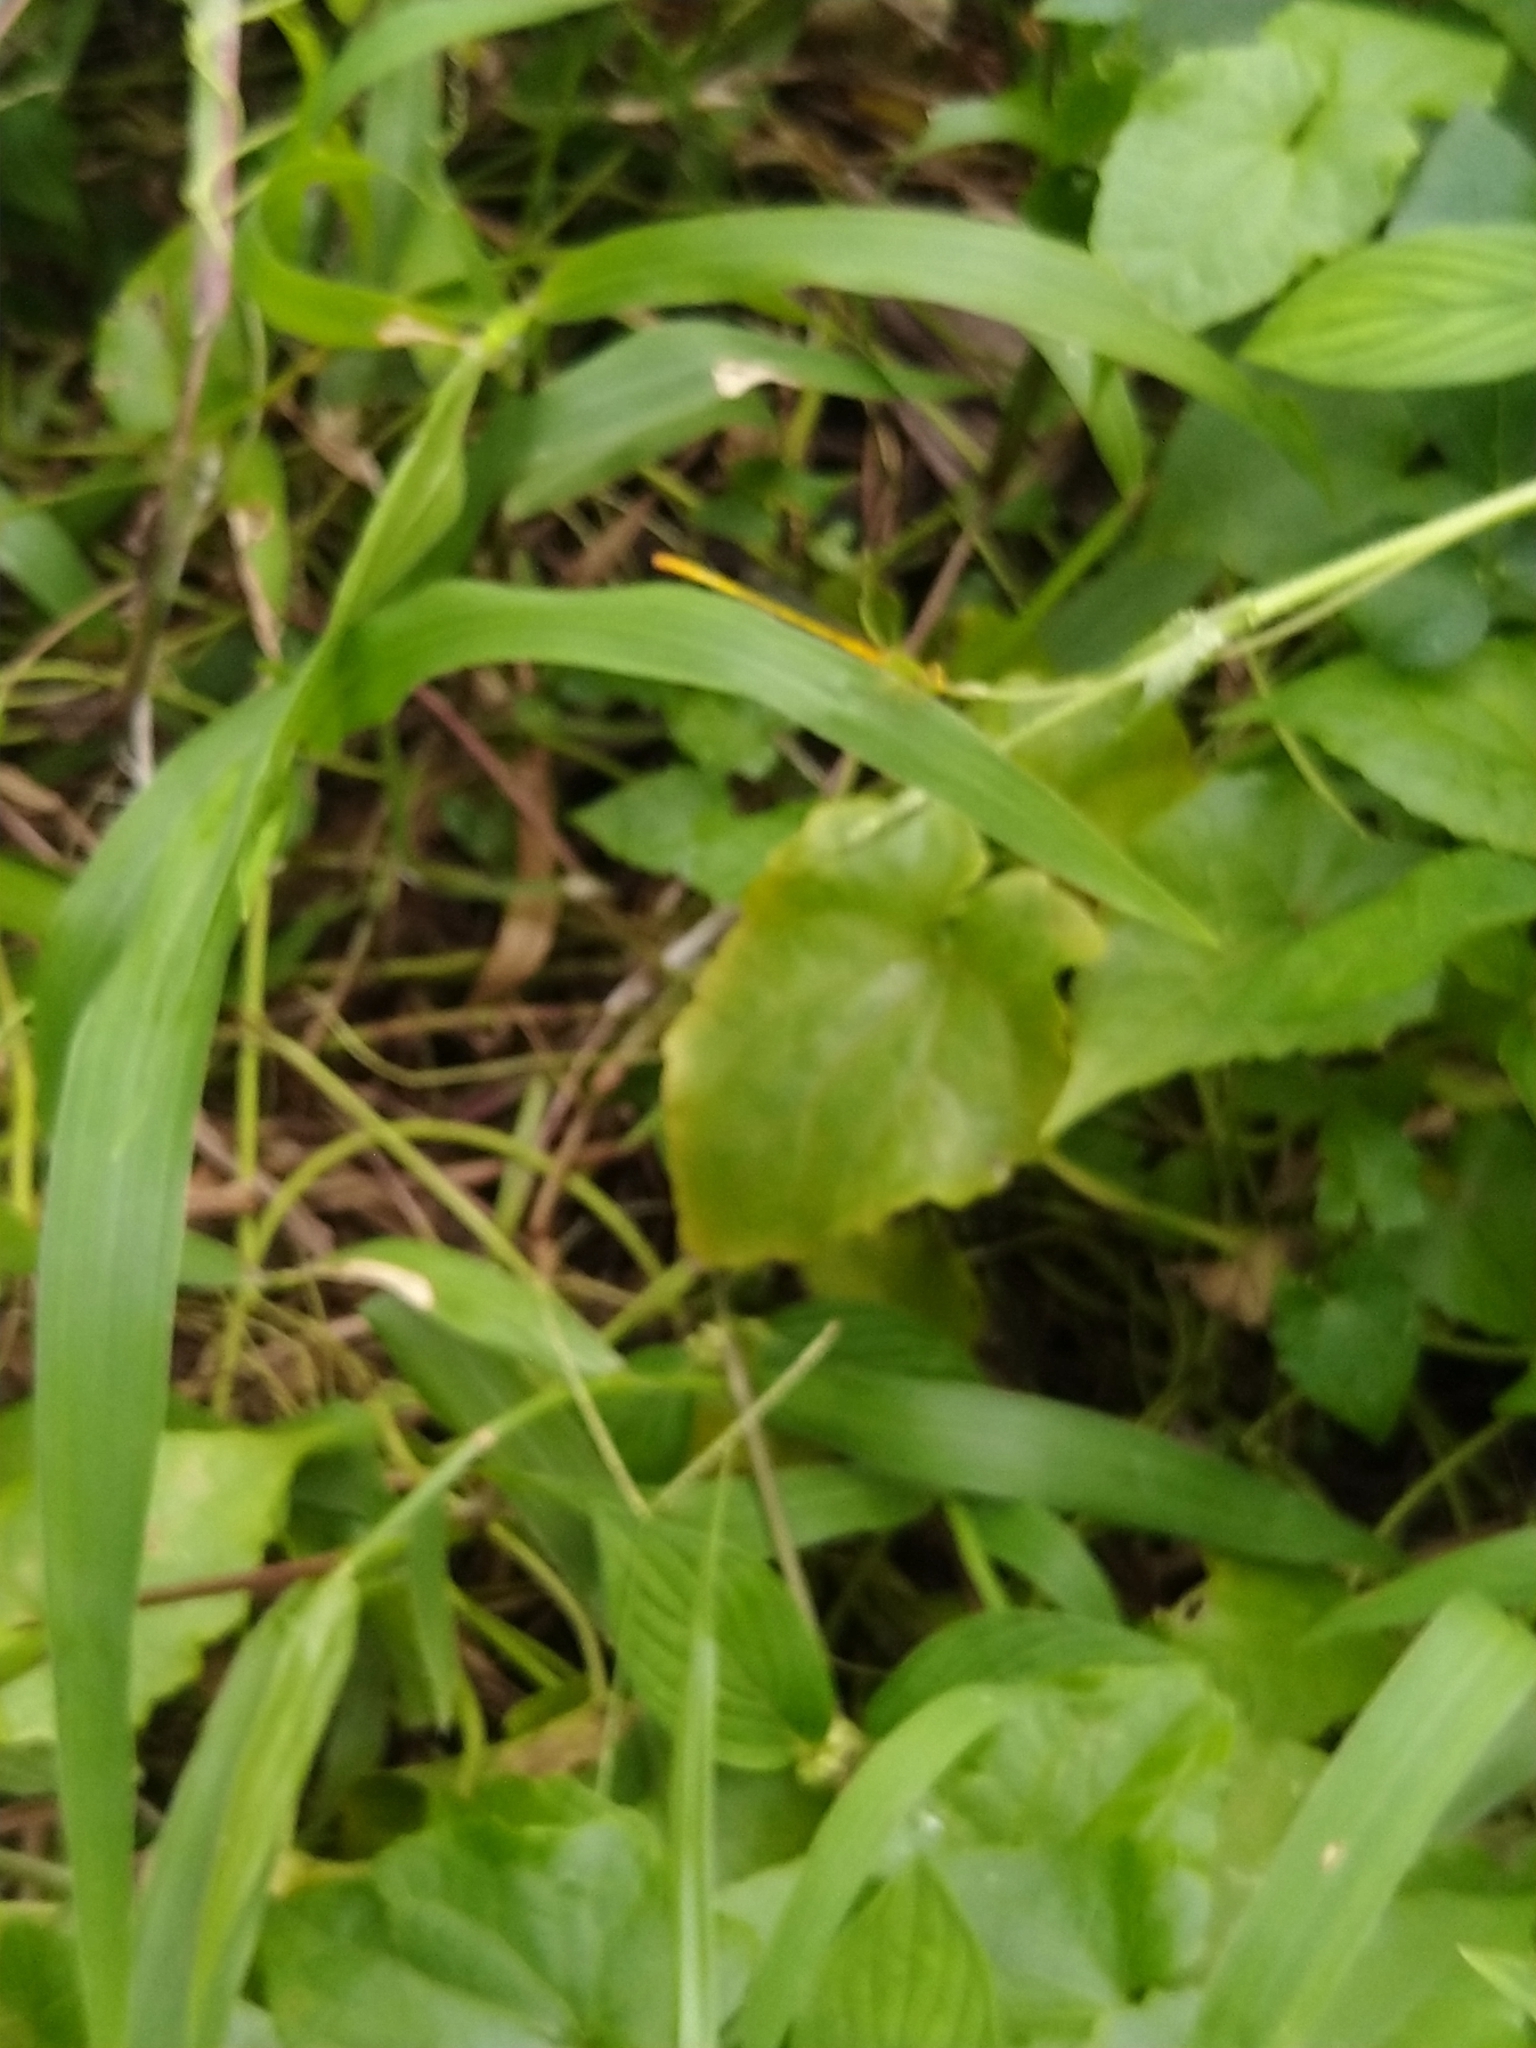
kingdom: Animalia
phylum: Arthropoda
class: Insecta
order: Odonata
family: Coenagrionidae
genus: Ceriagrion
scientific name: Ceriagrion coromandelianum
